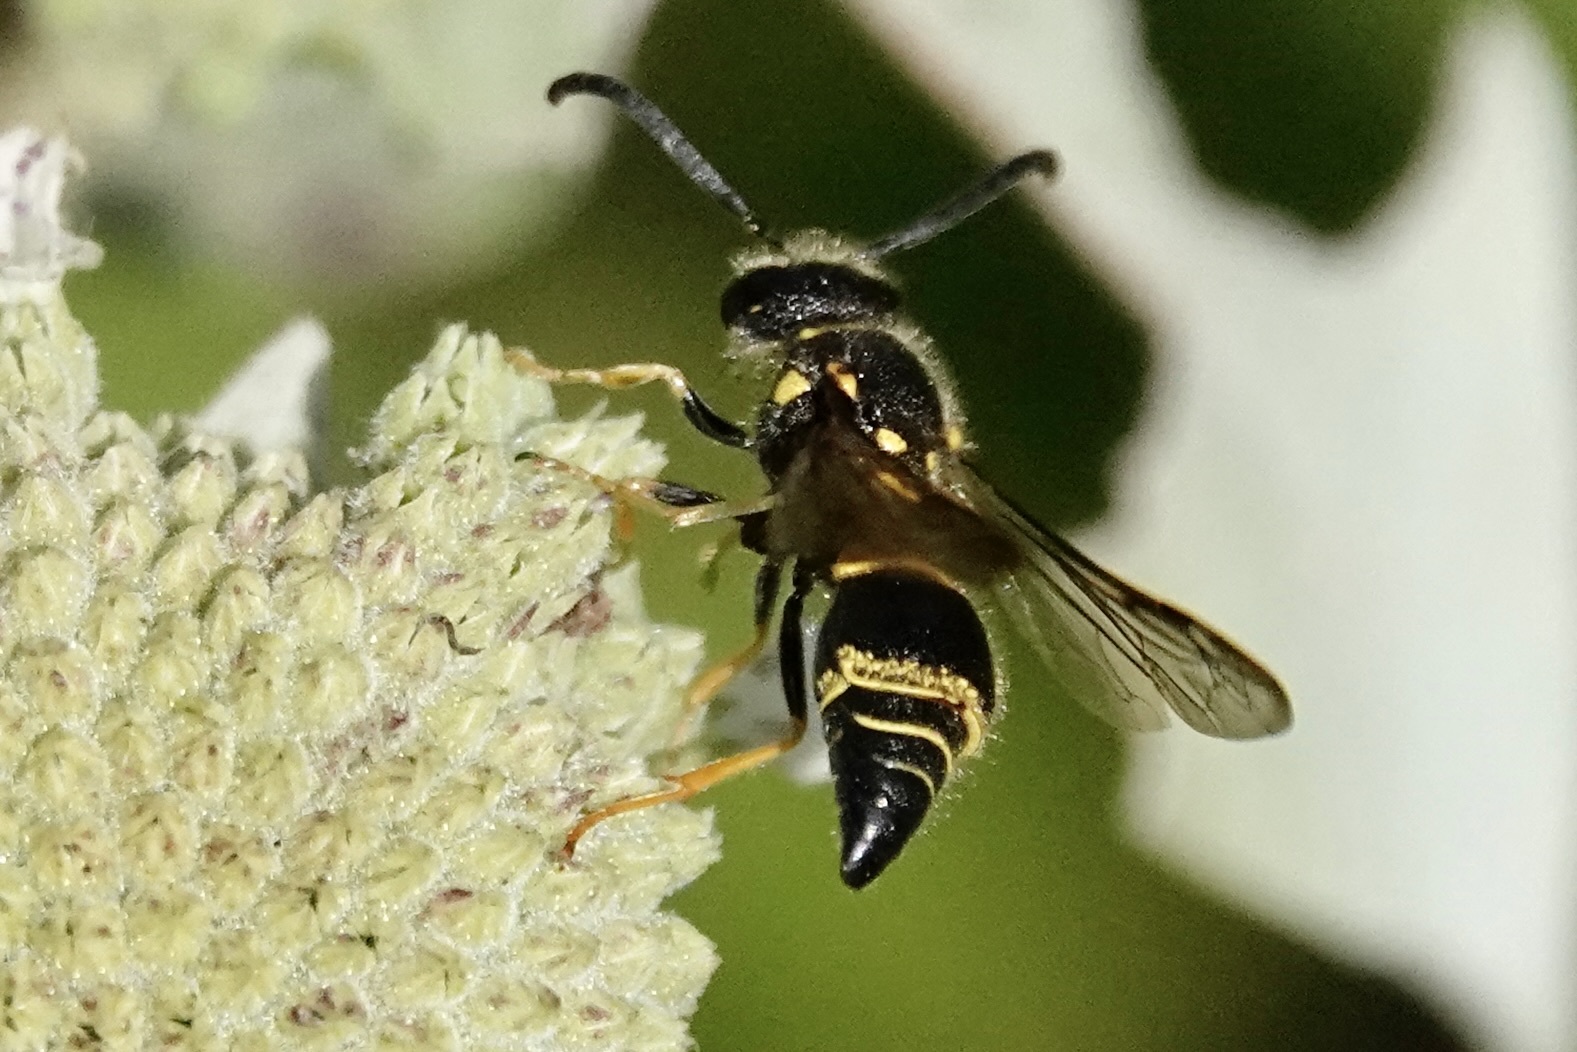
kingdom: Animalia
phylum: Arthropoda
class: Insecta
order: Hymenoptera
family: Vespidae
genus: Ancistrocerus
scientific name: Ancistrocerus campestris
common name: Smiling mason wasp
